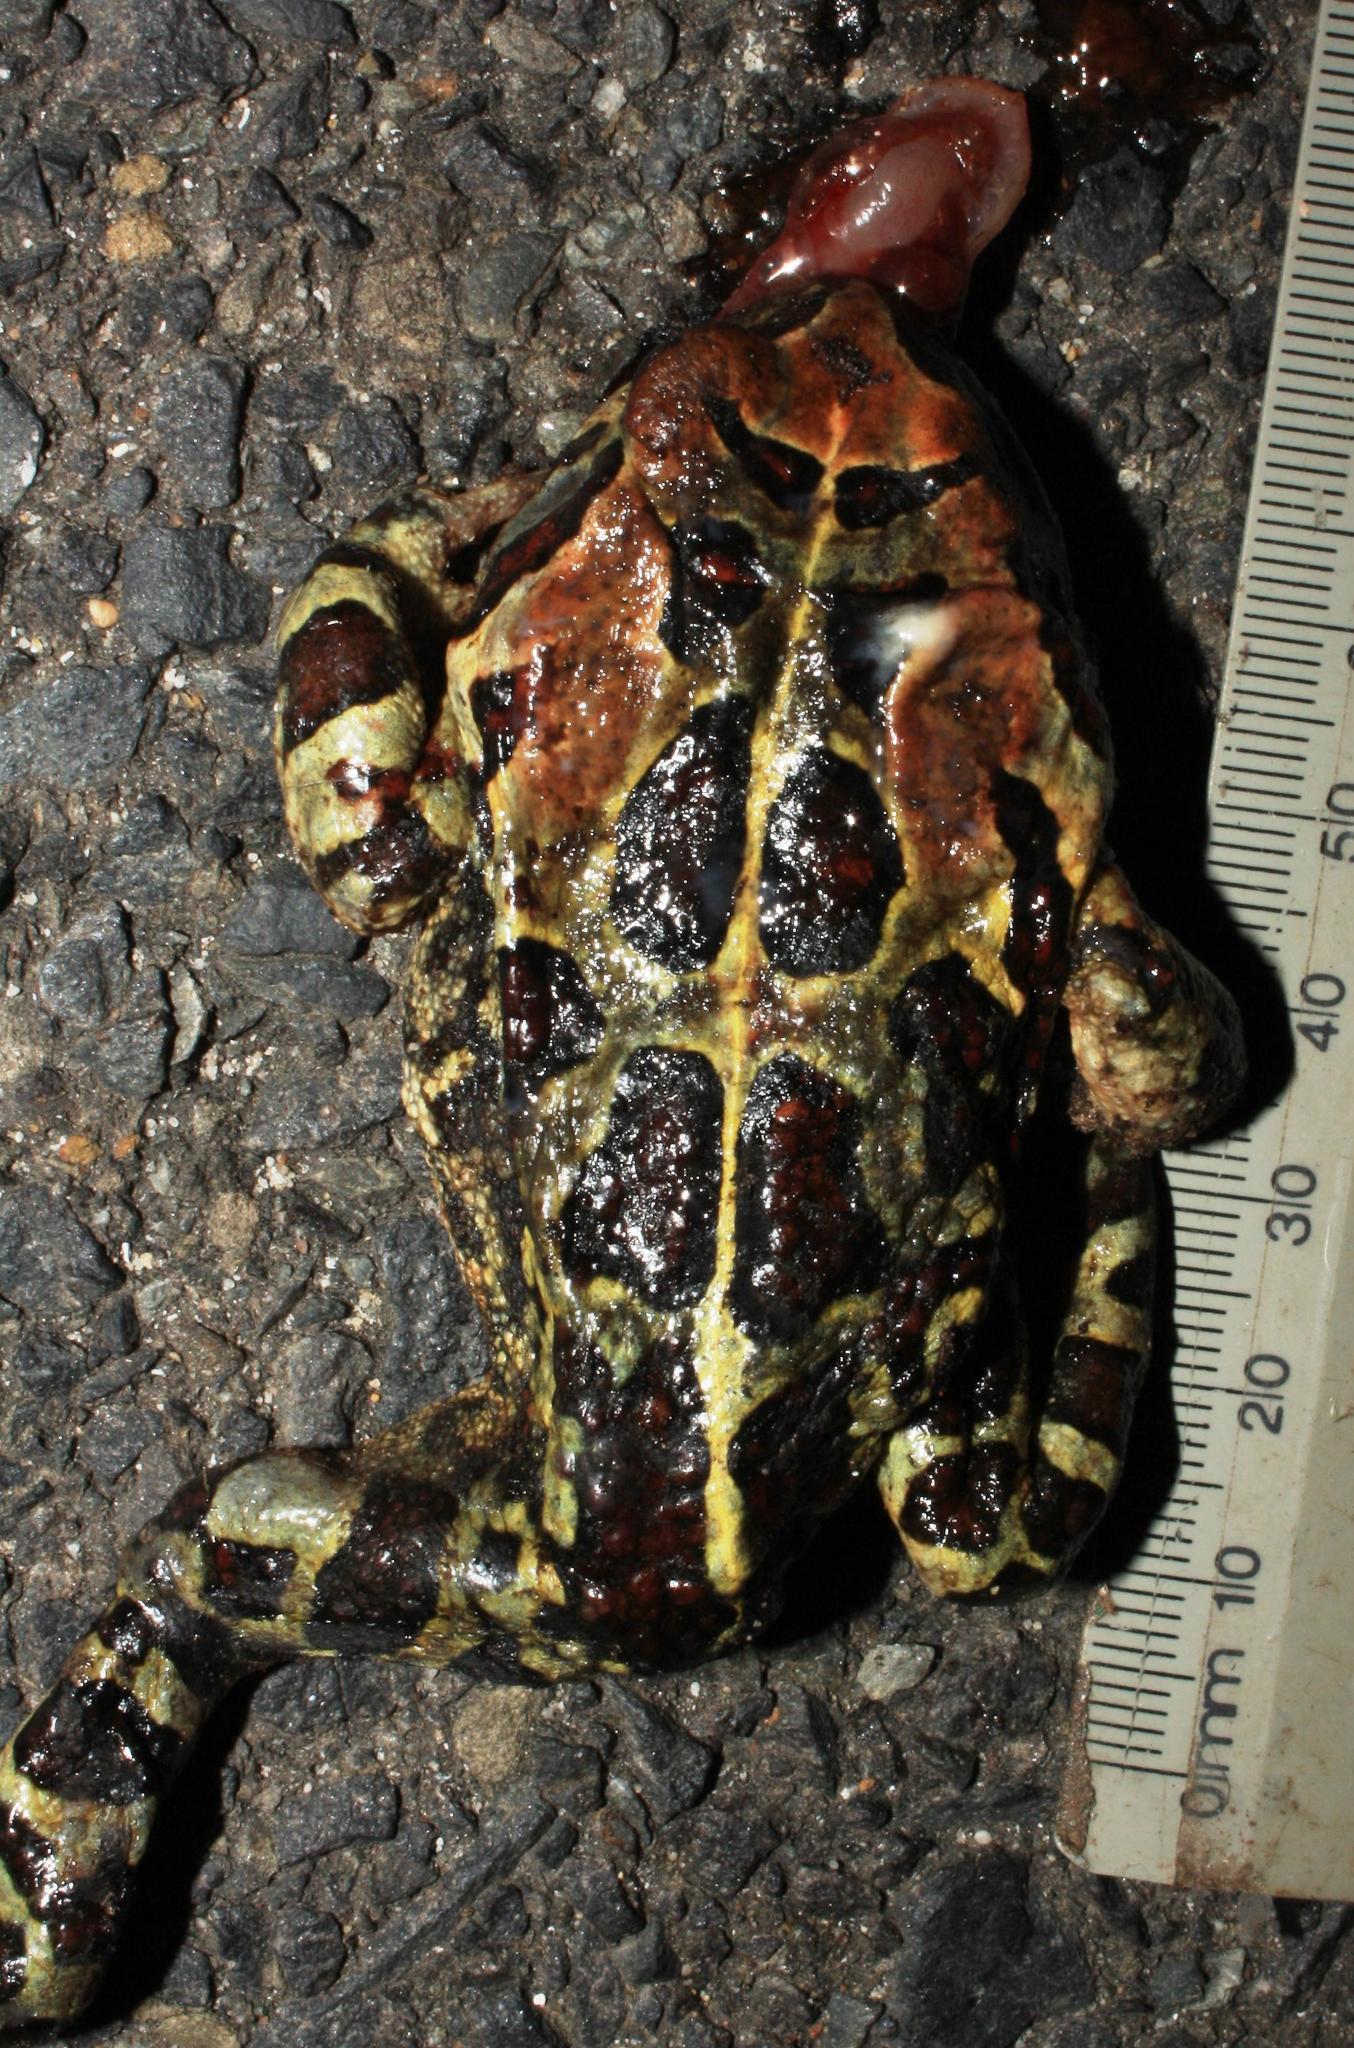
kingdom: Animalia
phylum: Chordata
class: Amphibia
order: Anura
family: Bufonidae
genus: Sclerophrys
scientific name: Sclerophrys pantherina
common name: Panther toad
